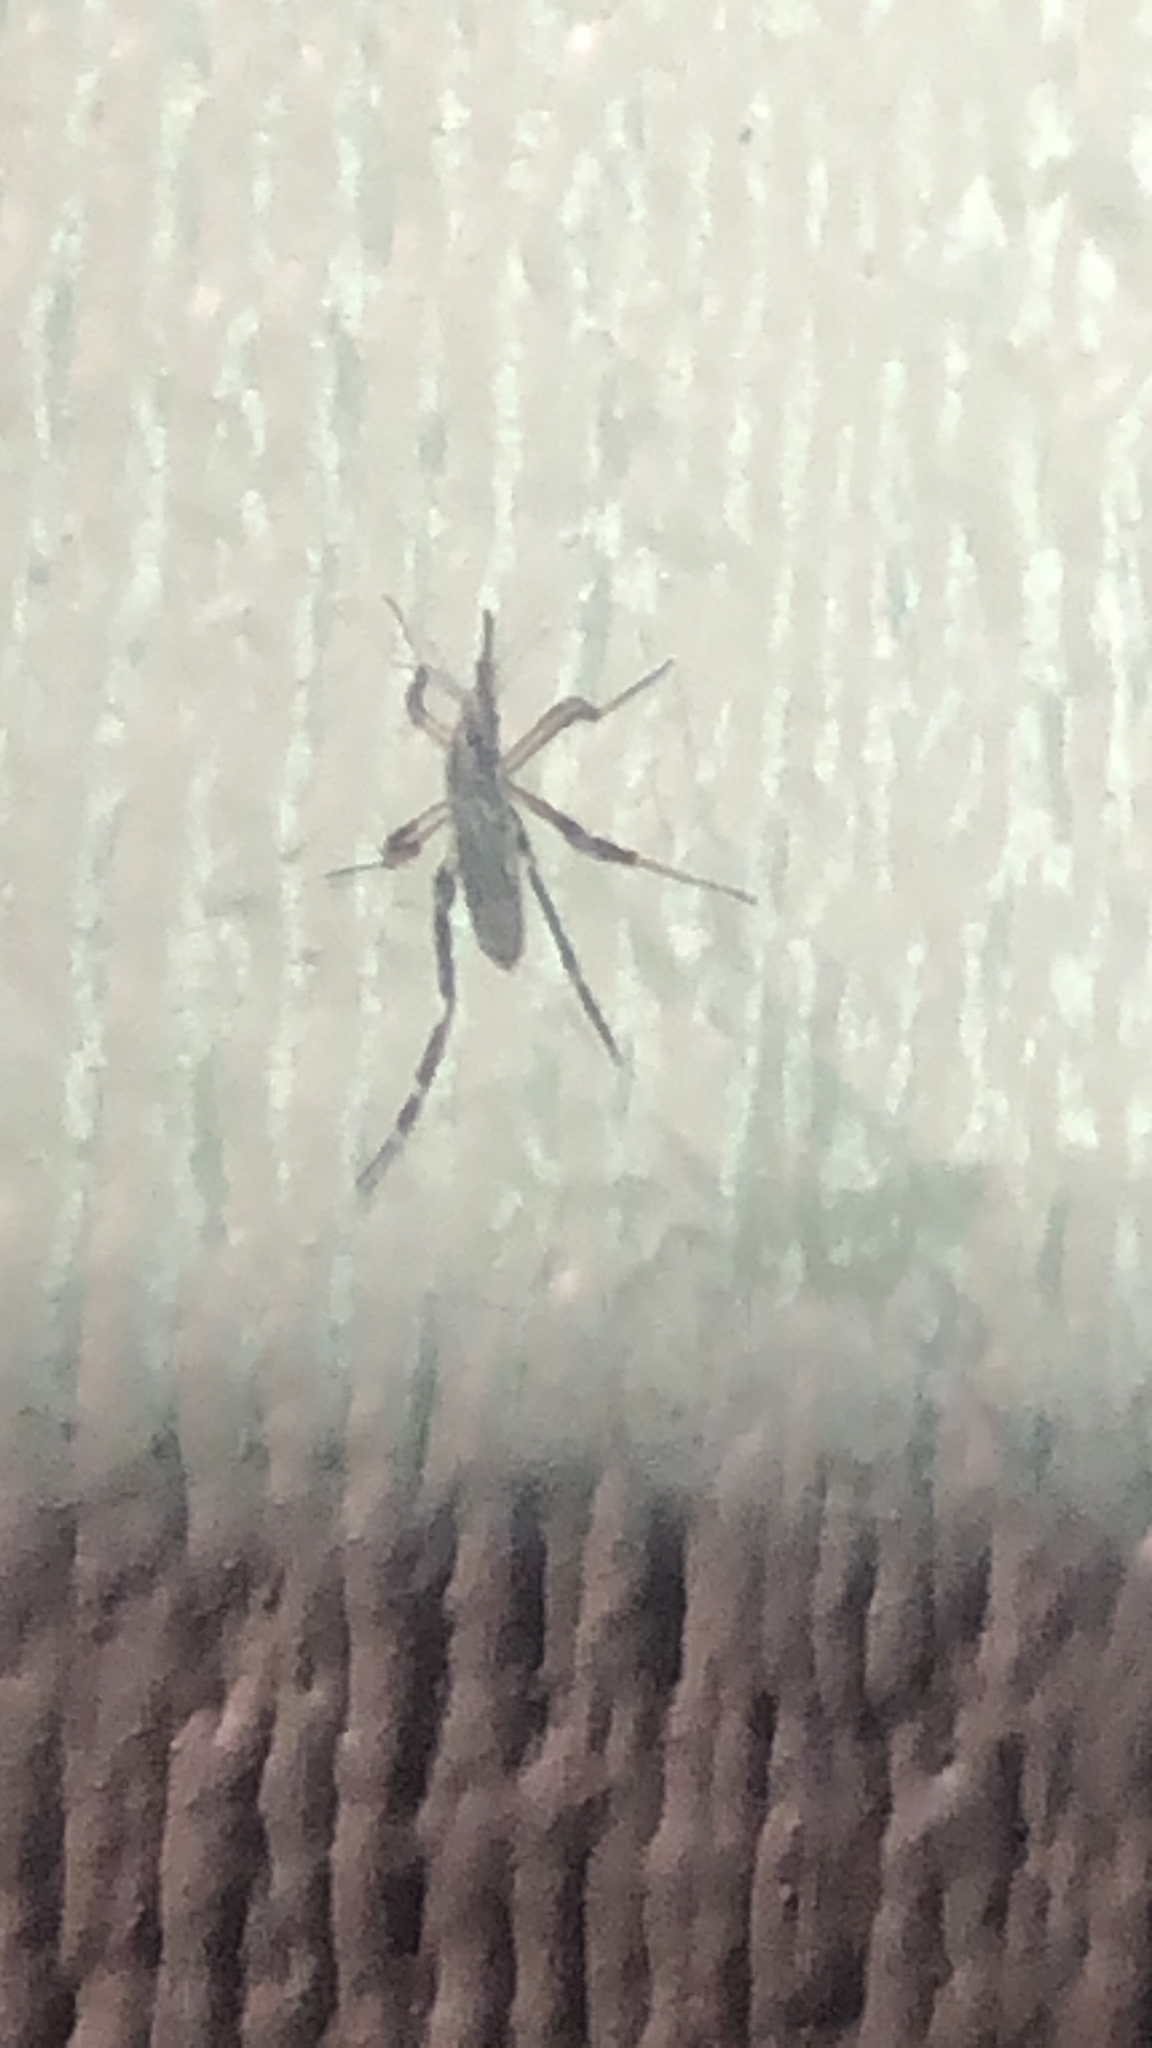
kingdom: Animalia
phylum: Arthropoda
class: Insecta
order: Diptera
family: Culicidae
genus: Psorophora
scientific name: Psorophora ciliata
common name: Gallinipper
